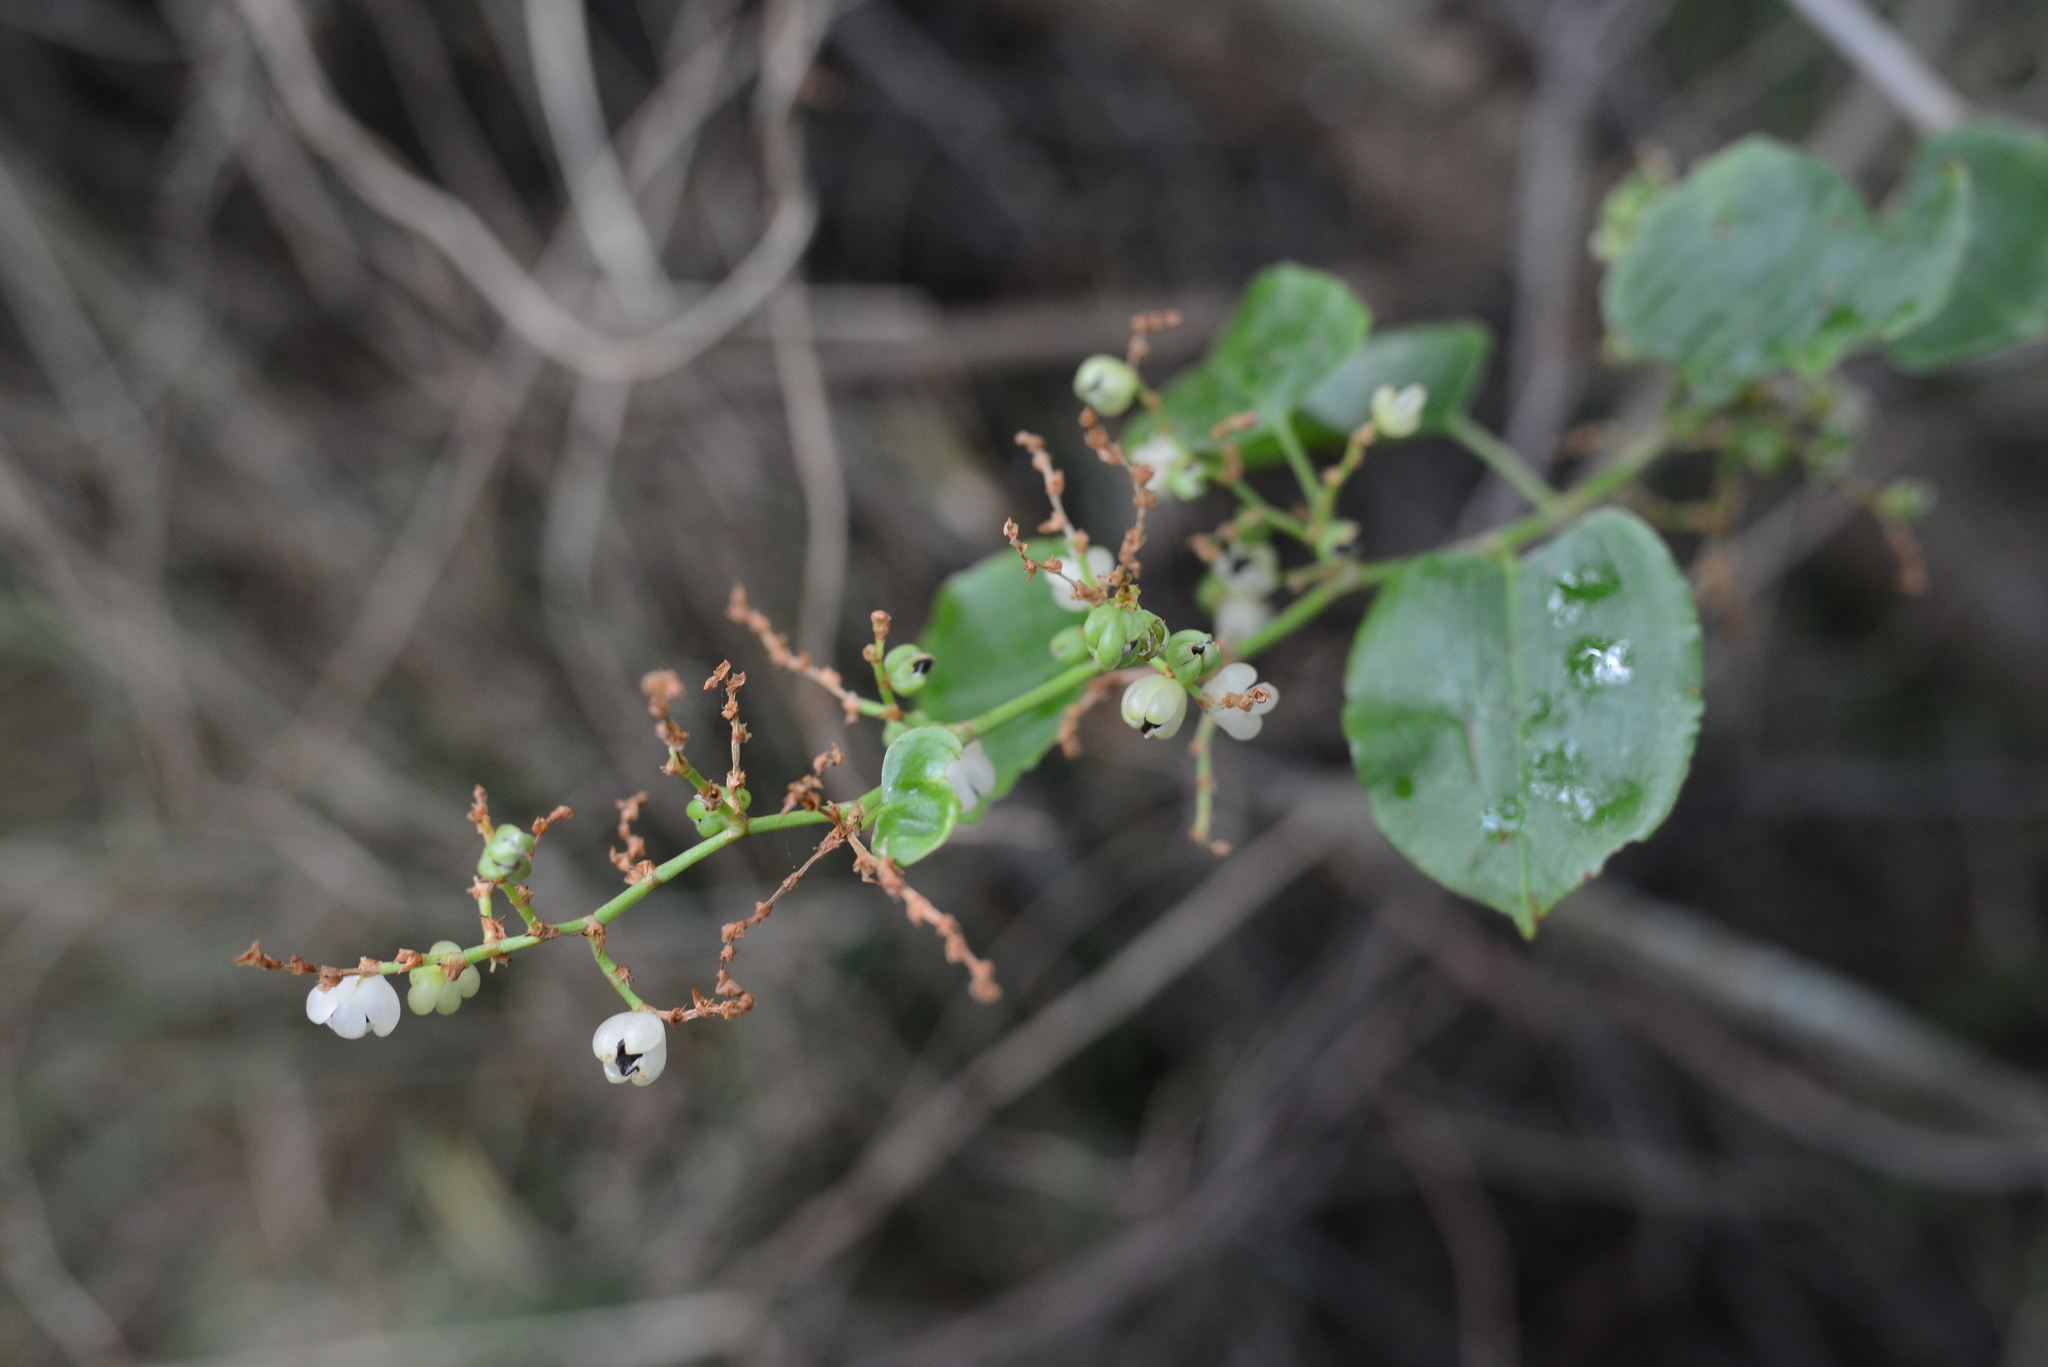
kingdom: Plantae
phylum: Tracheophyta
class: Magnoliopsida
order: Caryophyllales
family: Polygonaceae
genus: Muehlenbeckia
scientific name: Muehlenbeckia australis
